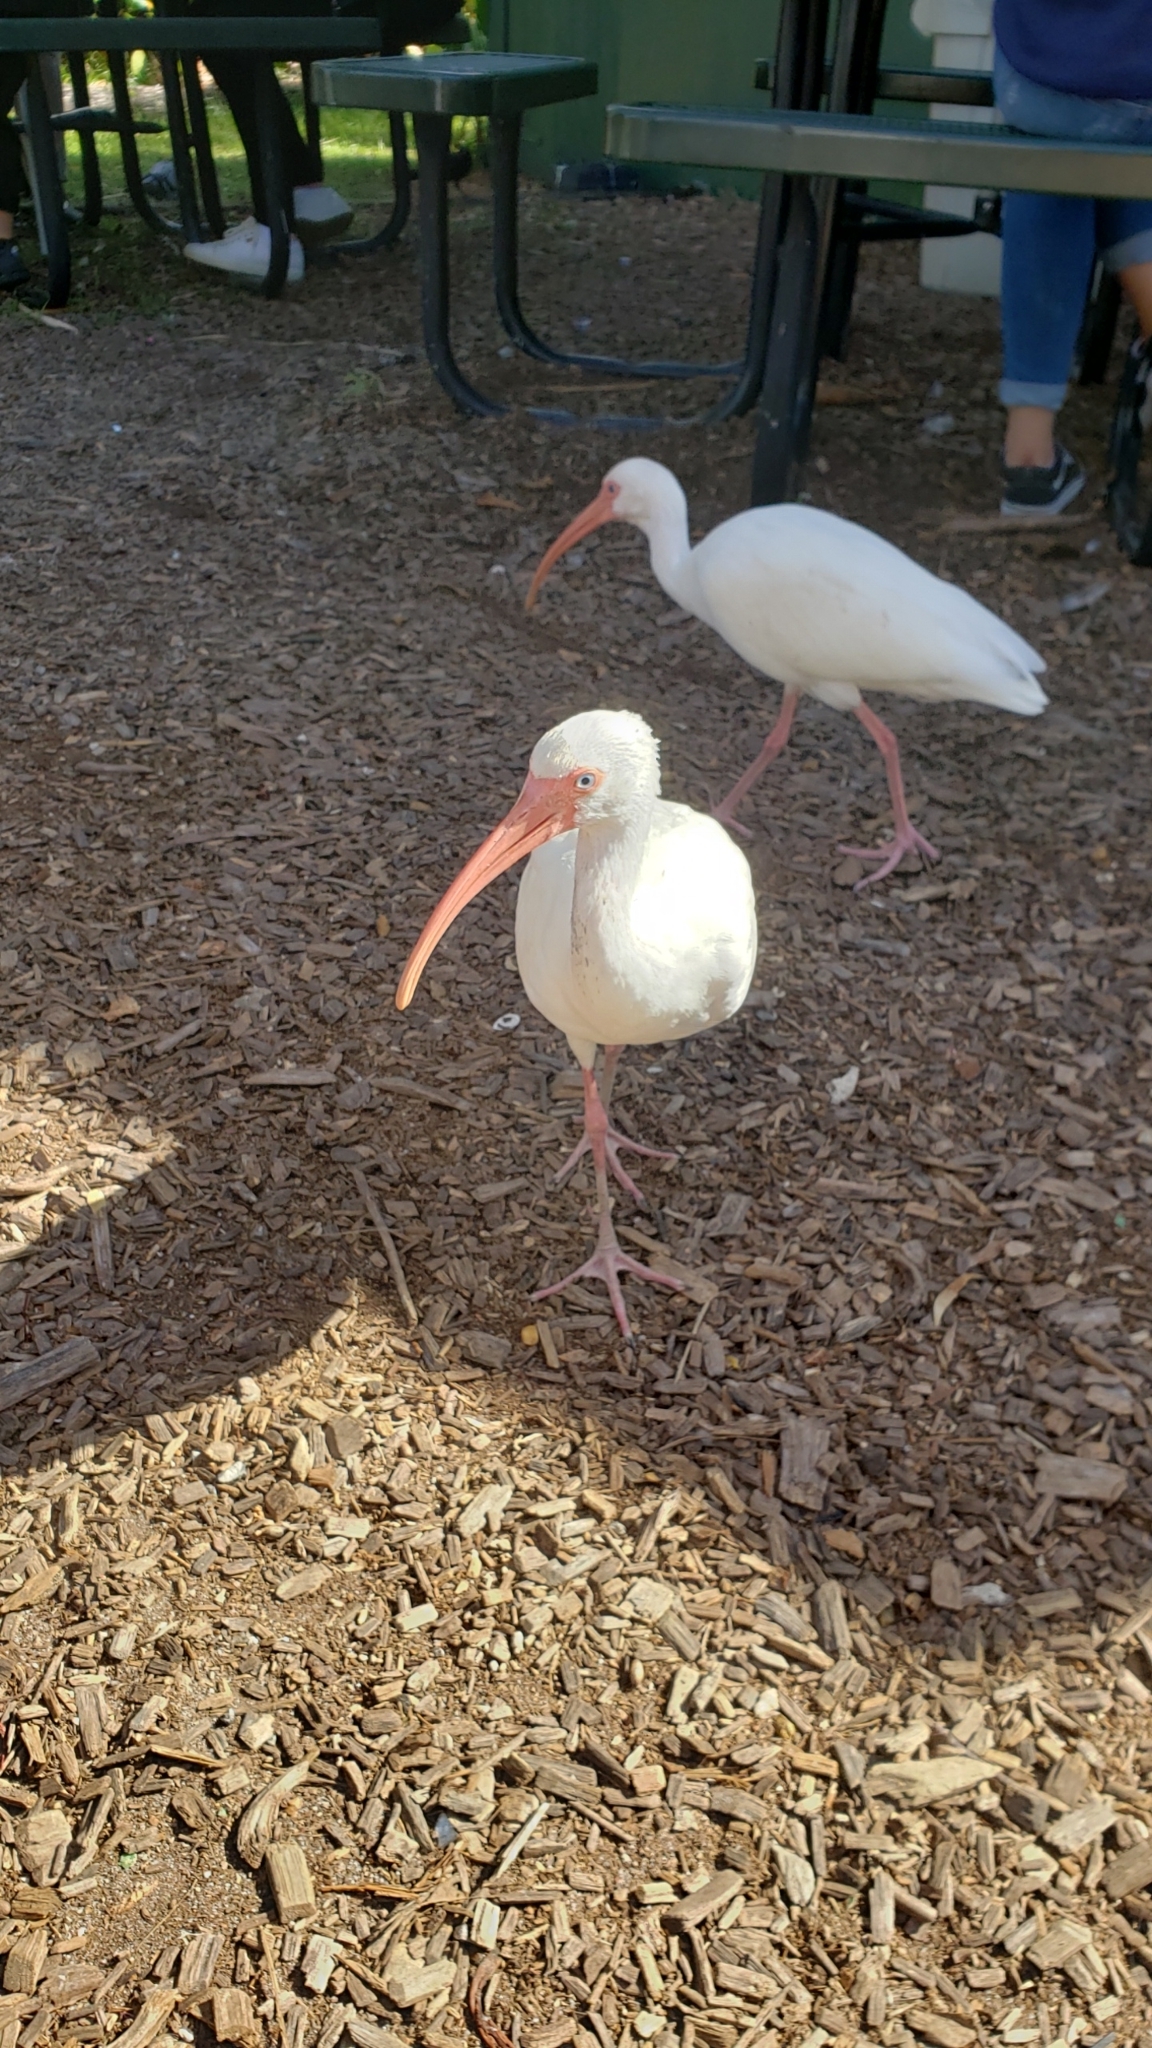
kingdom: Animalia
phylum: Chordata
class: Aves
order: Pelecaniformes
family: Threskiornithidae
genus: Eudocimus
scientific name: Eudocimus albus
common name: White ibis
